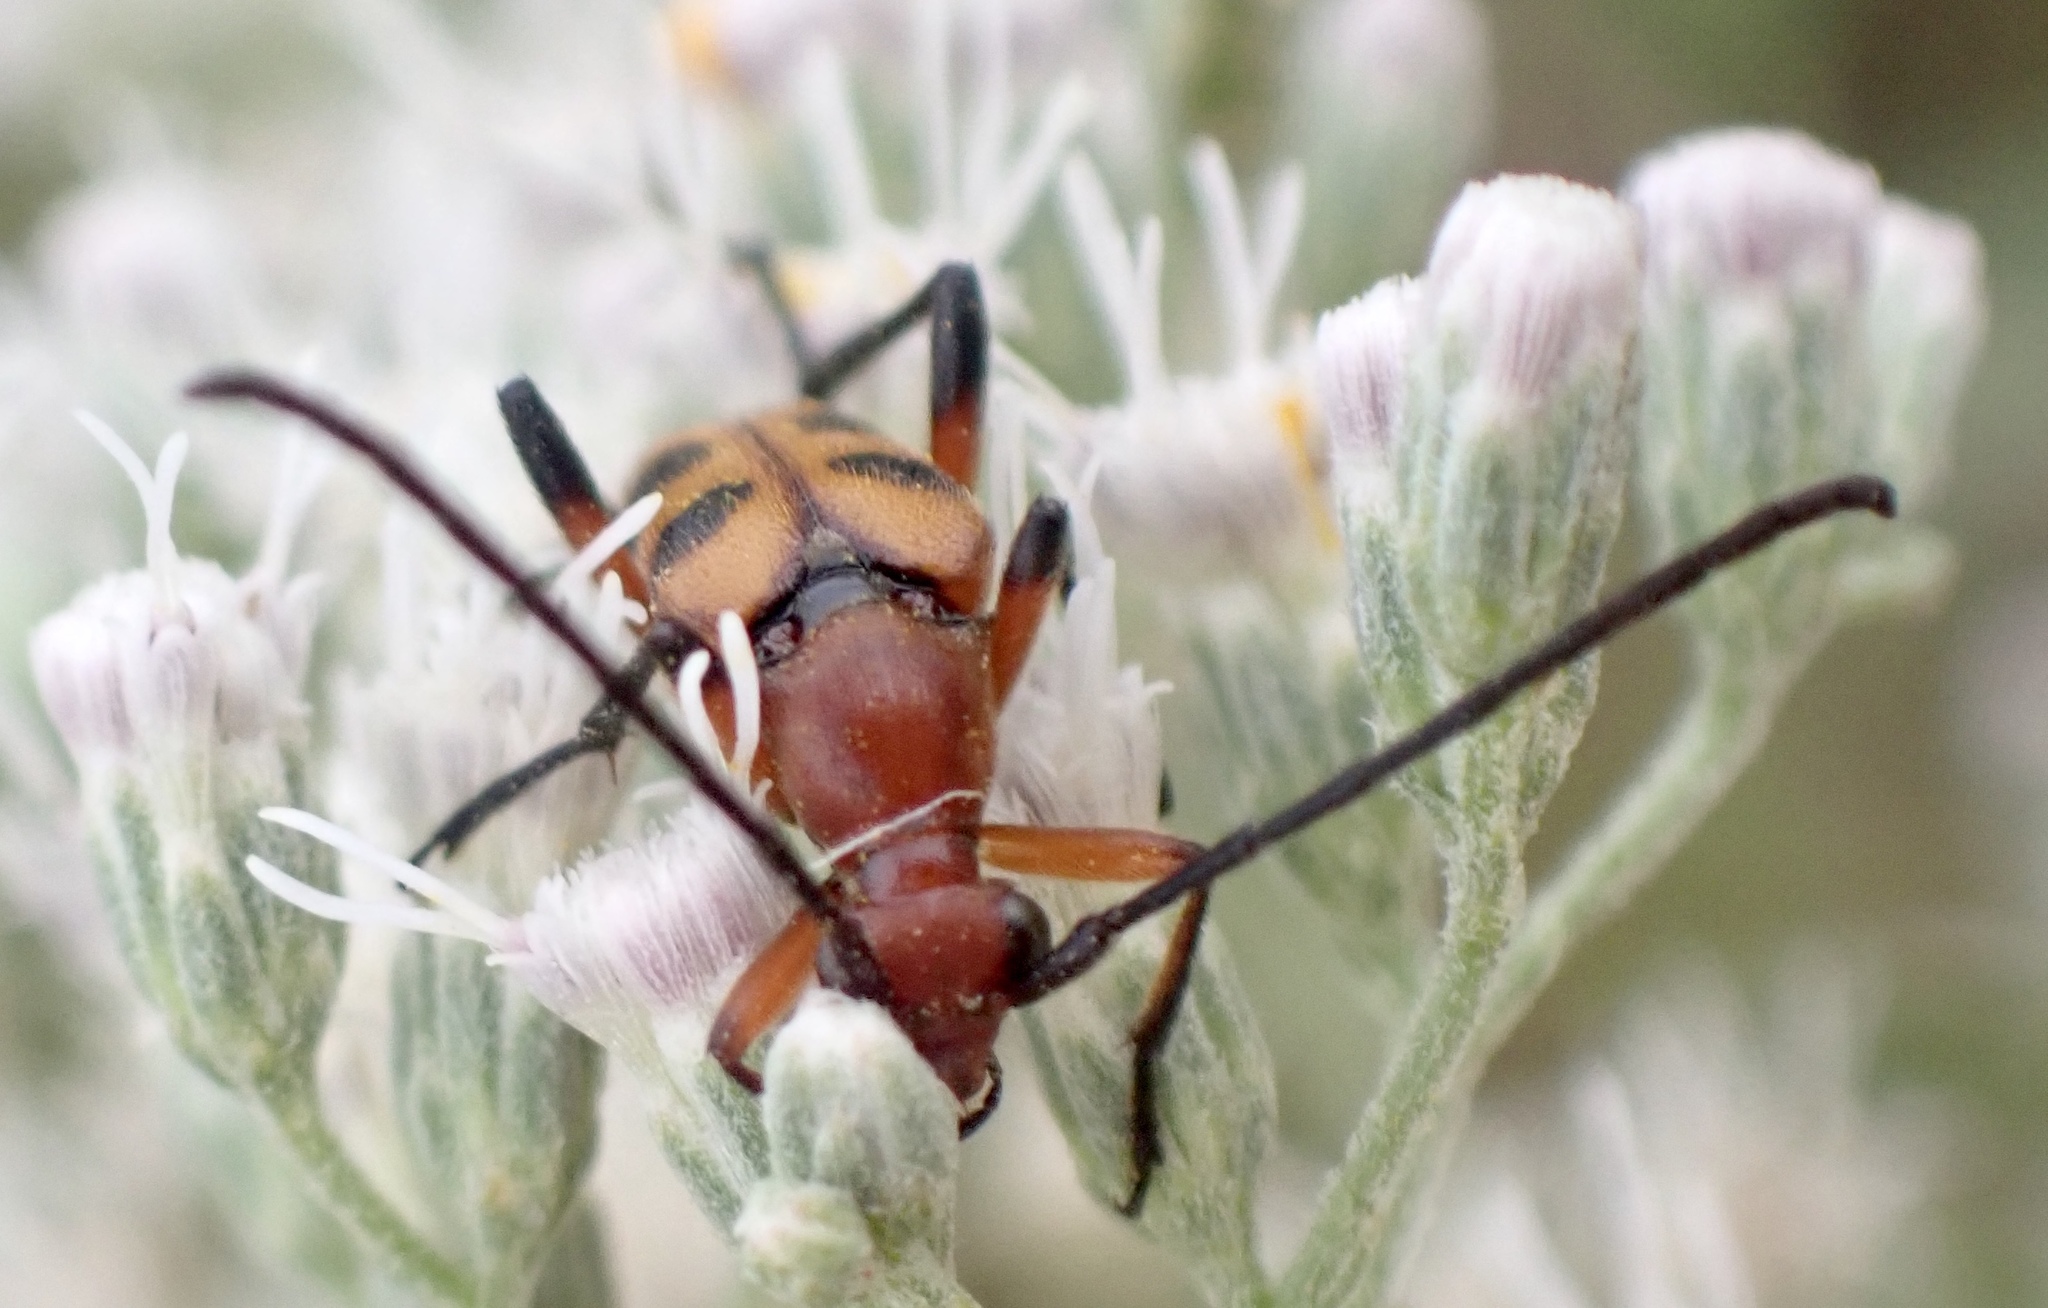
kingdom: Animalia
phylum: Arthropoda
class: Insecta
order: Coleoptera
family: Cerambycidae
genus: Strangalia
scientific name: Strangalia sexnotata
